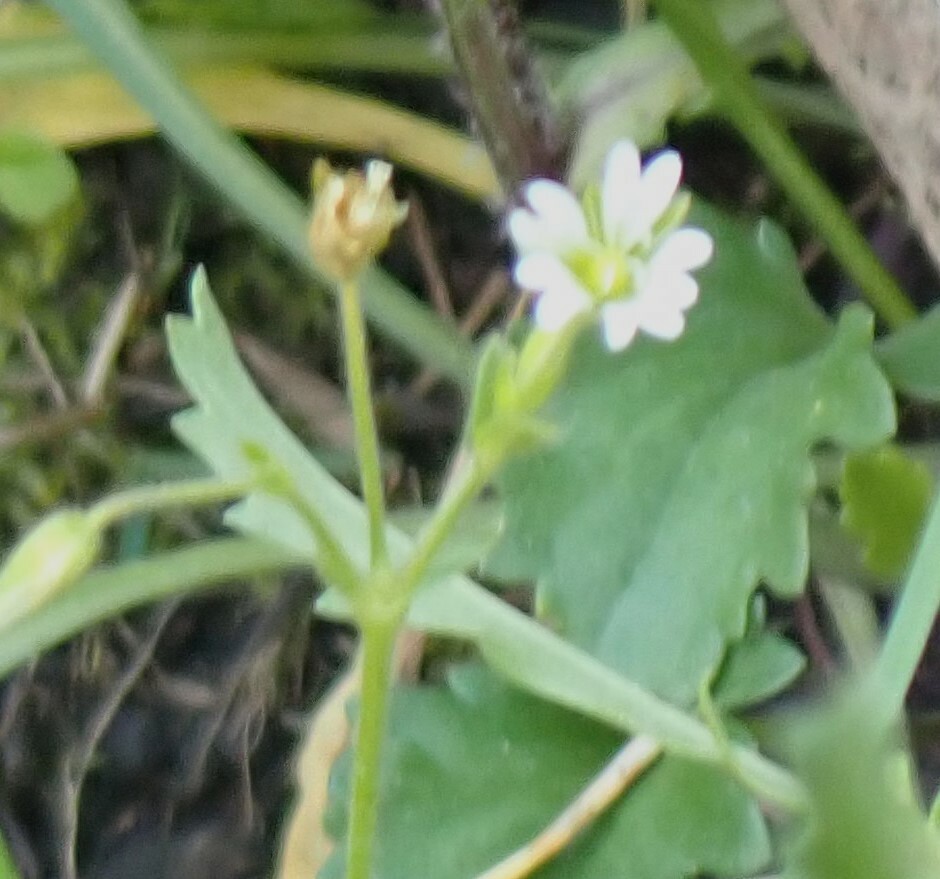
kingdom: Plantae
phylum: Tracheophyta
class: Magnoliopsida
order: Caryophyllales
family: Caryophyllaceae
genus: Cerastium
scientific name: Cerastium fontanum
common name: Common mouse-ear
